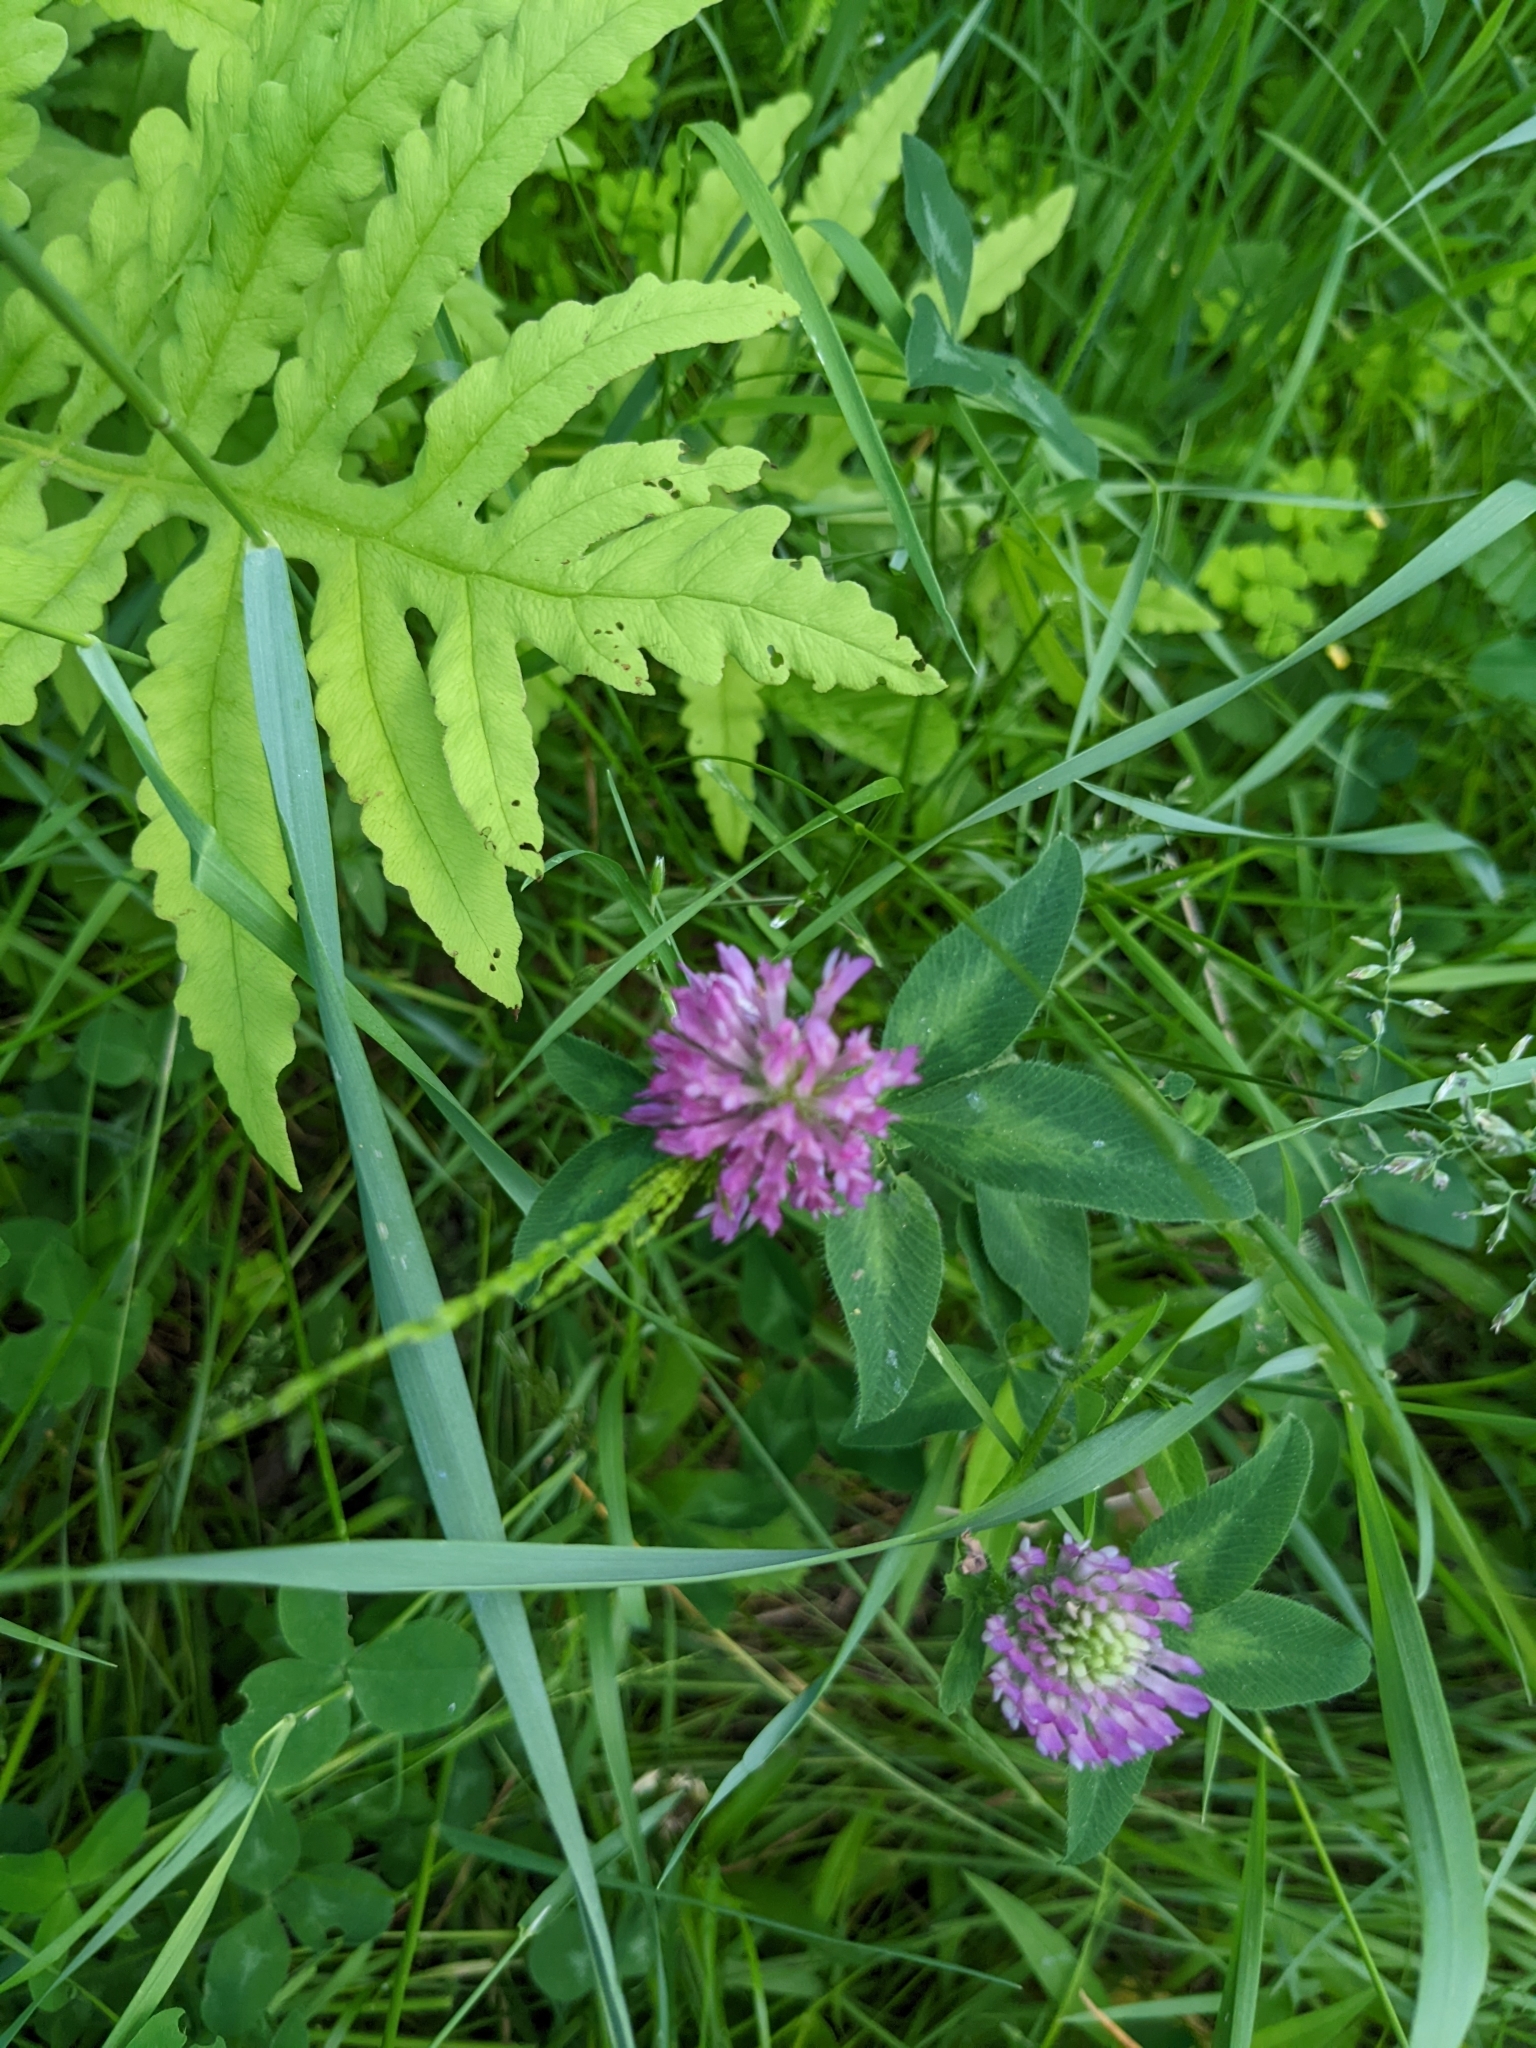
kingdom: Plantae
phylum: Tracheophyta
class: Magnoliopsida
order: Fabales
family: Fabaceae
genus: Trifolium
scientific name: Trifolium pratense
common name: Red clover
